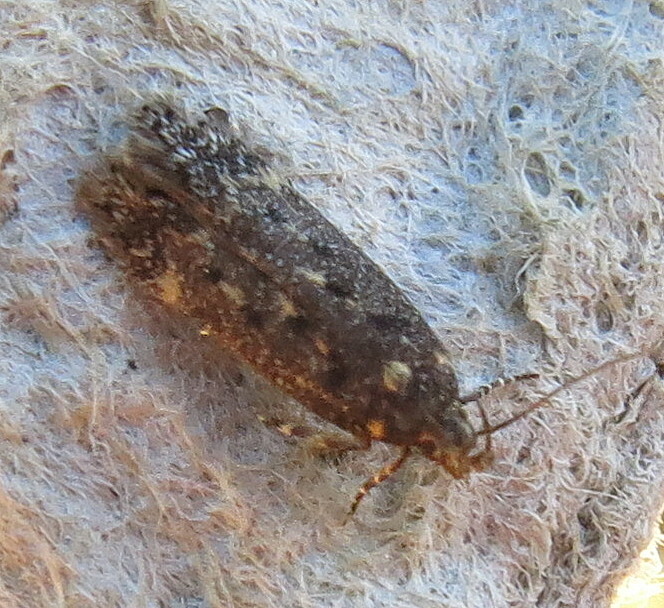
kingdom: Animalia
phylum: Arthropoda
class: Insecta
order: Lepidoptera
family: Gelechiidae
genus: Bryotropha
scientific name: Bryotropha affinis
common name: Dark groundling
